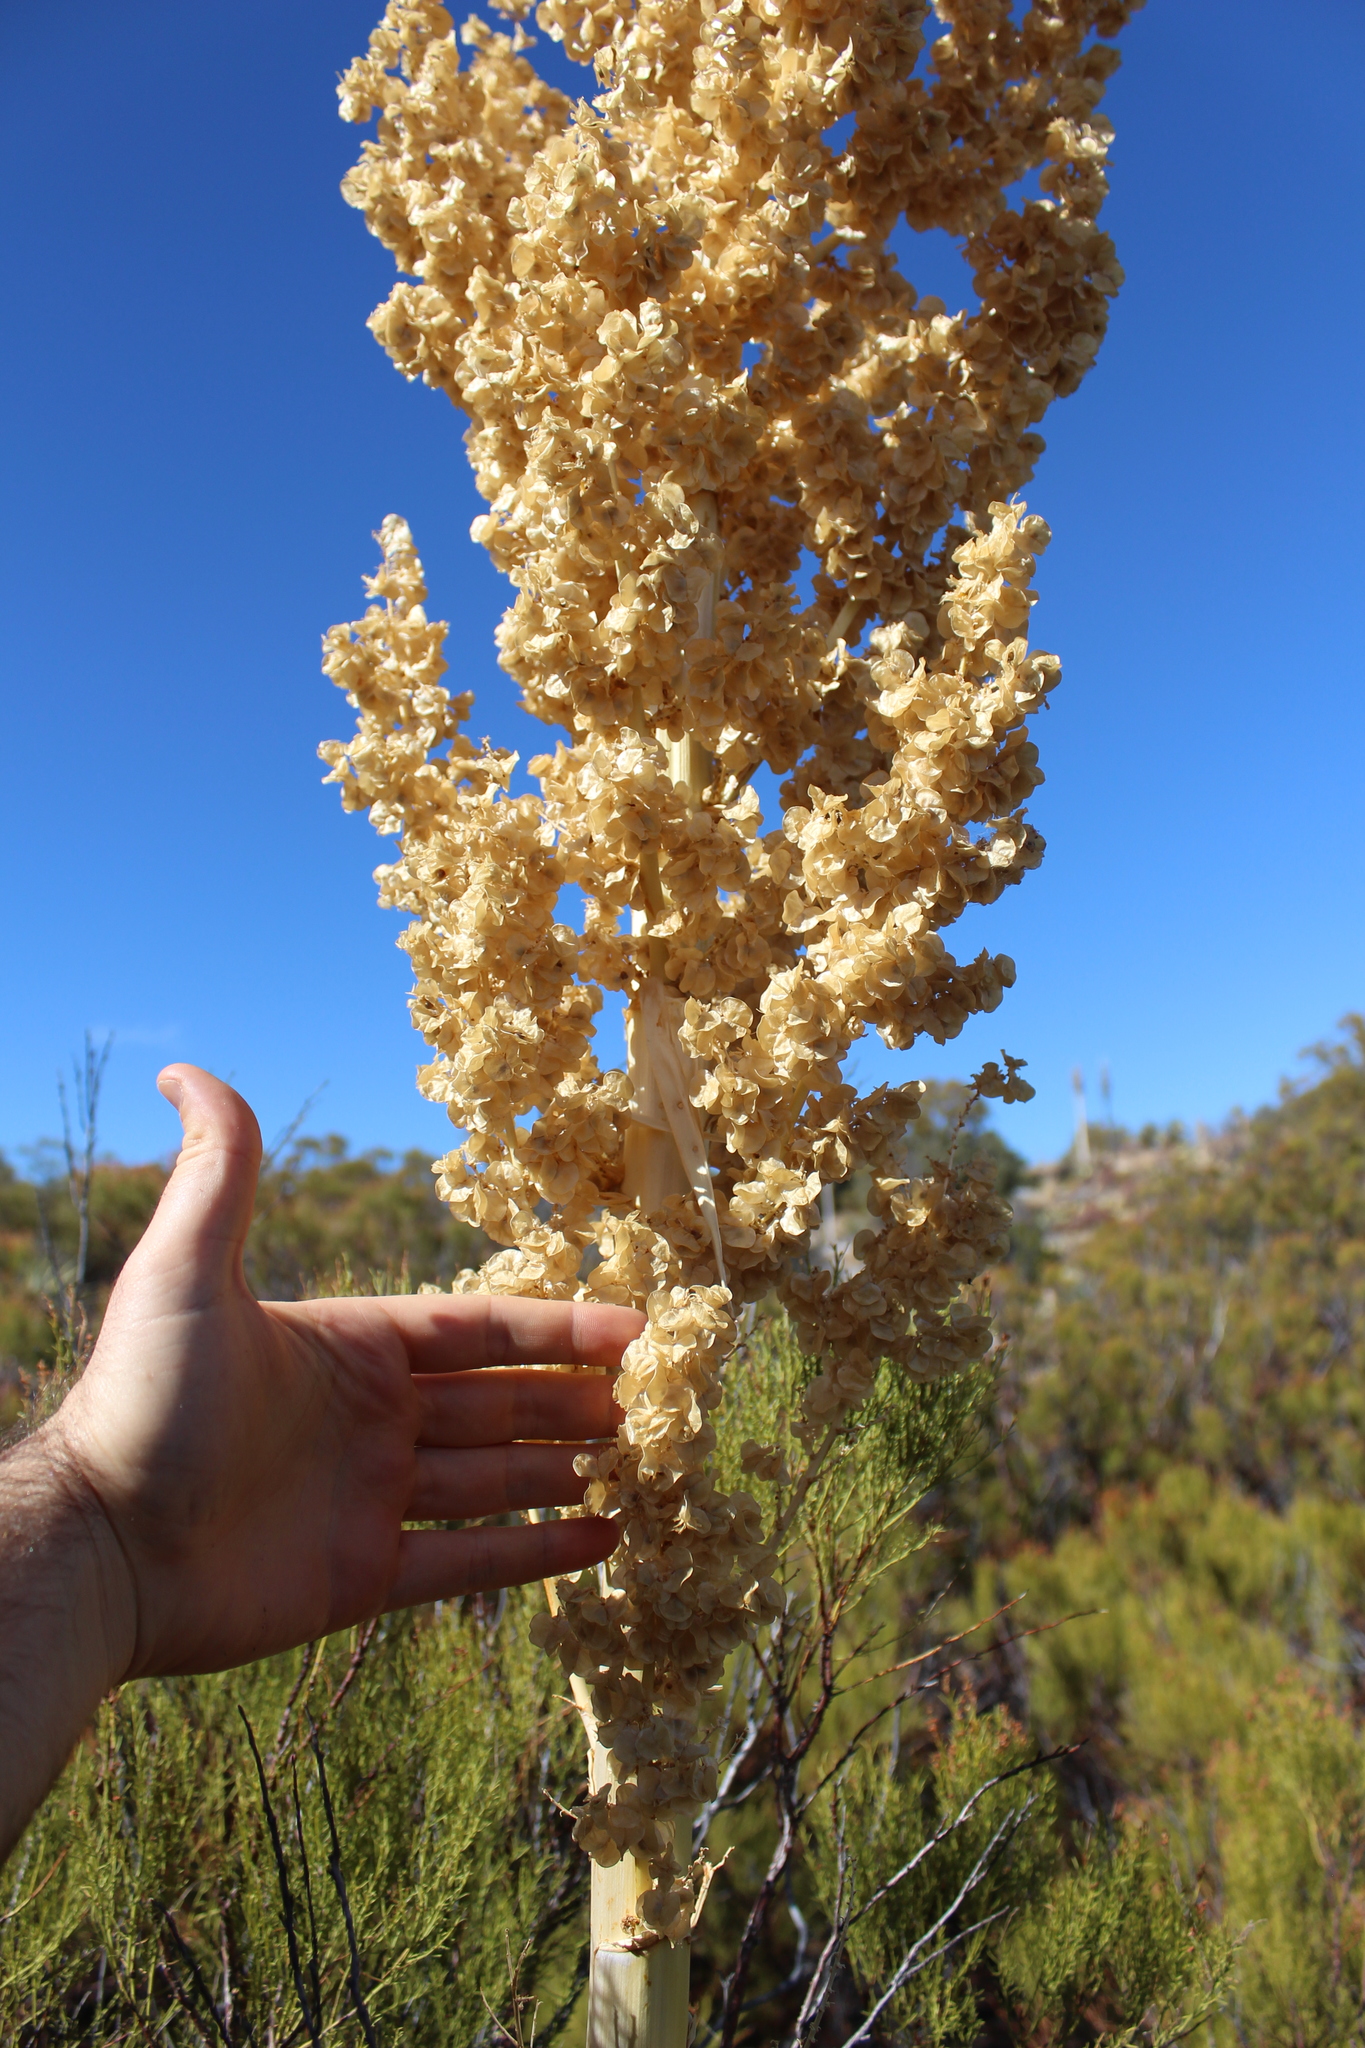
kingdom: Plantae
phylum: Tracheophyta
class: Liliopsida
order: Asparagales
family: Asparagaceae
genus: Nolina
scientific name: Nolina parryi
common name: Parry nolina
